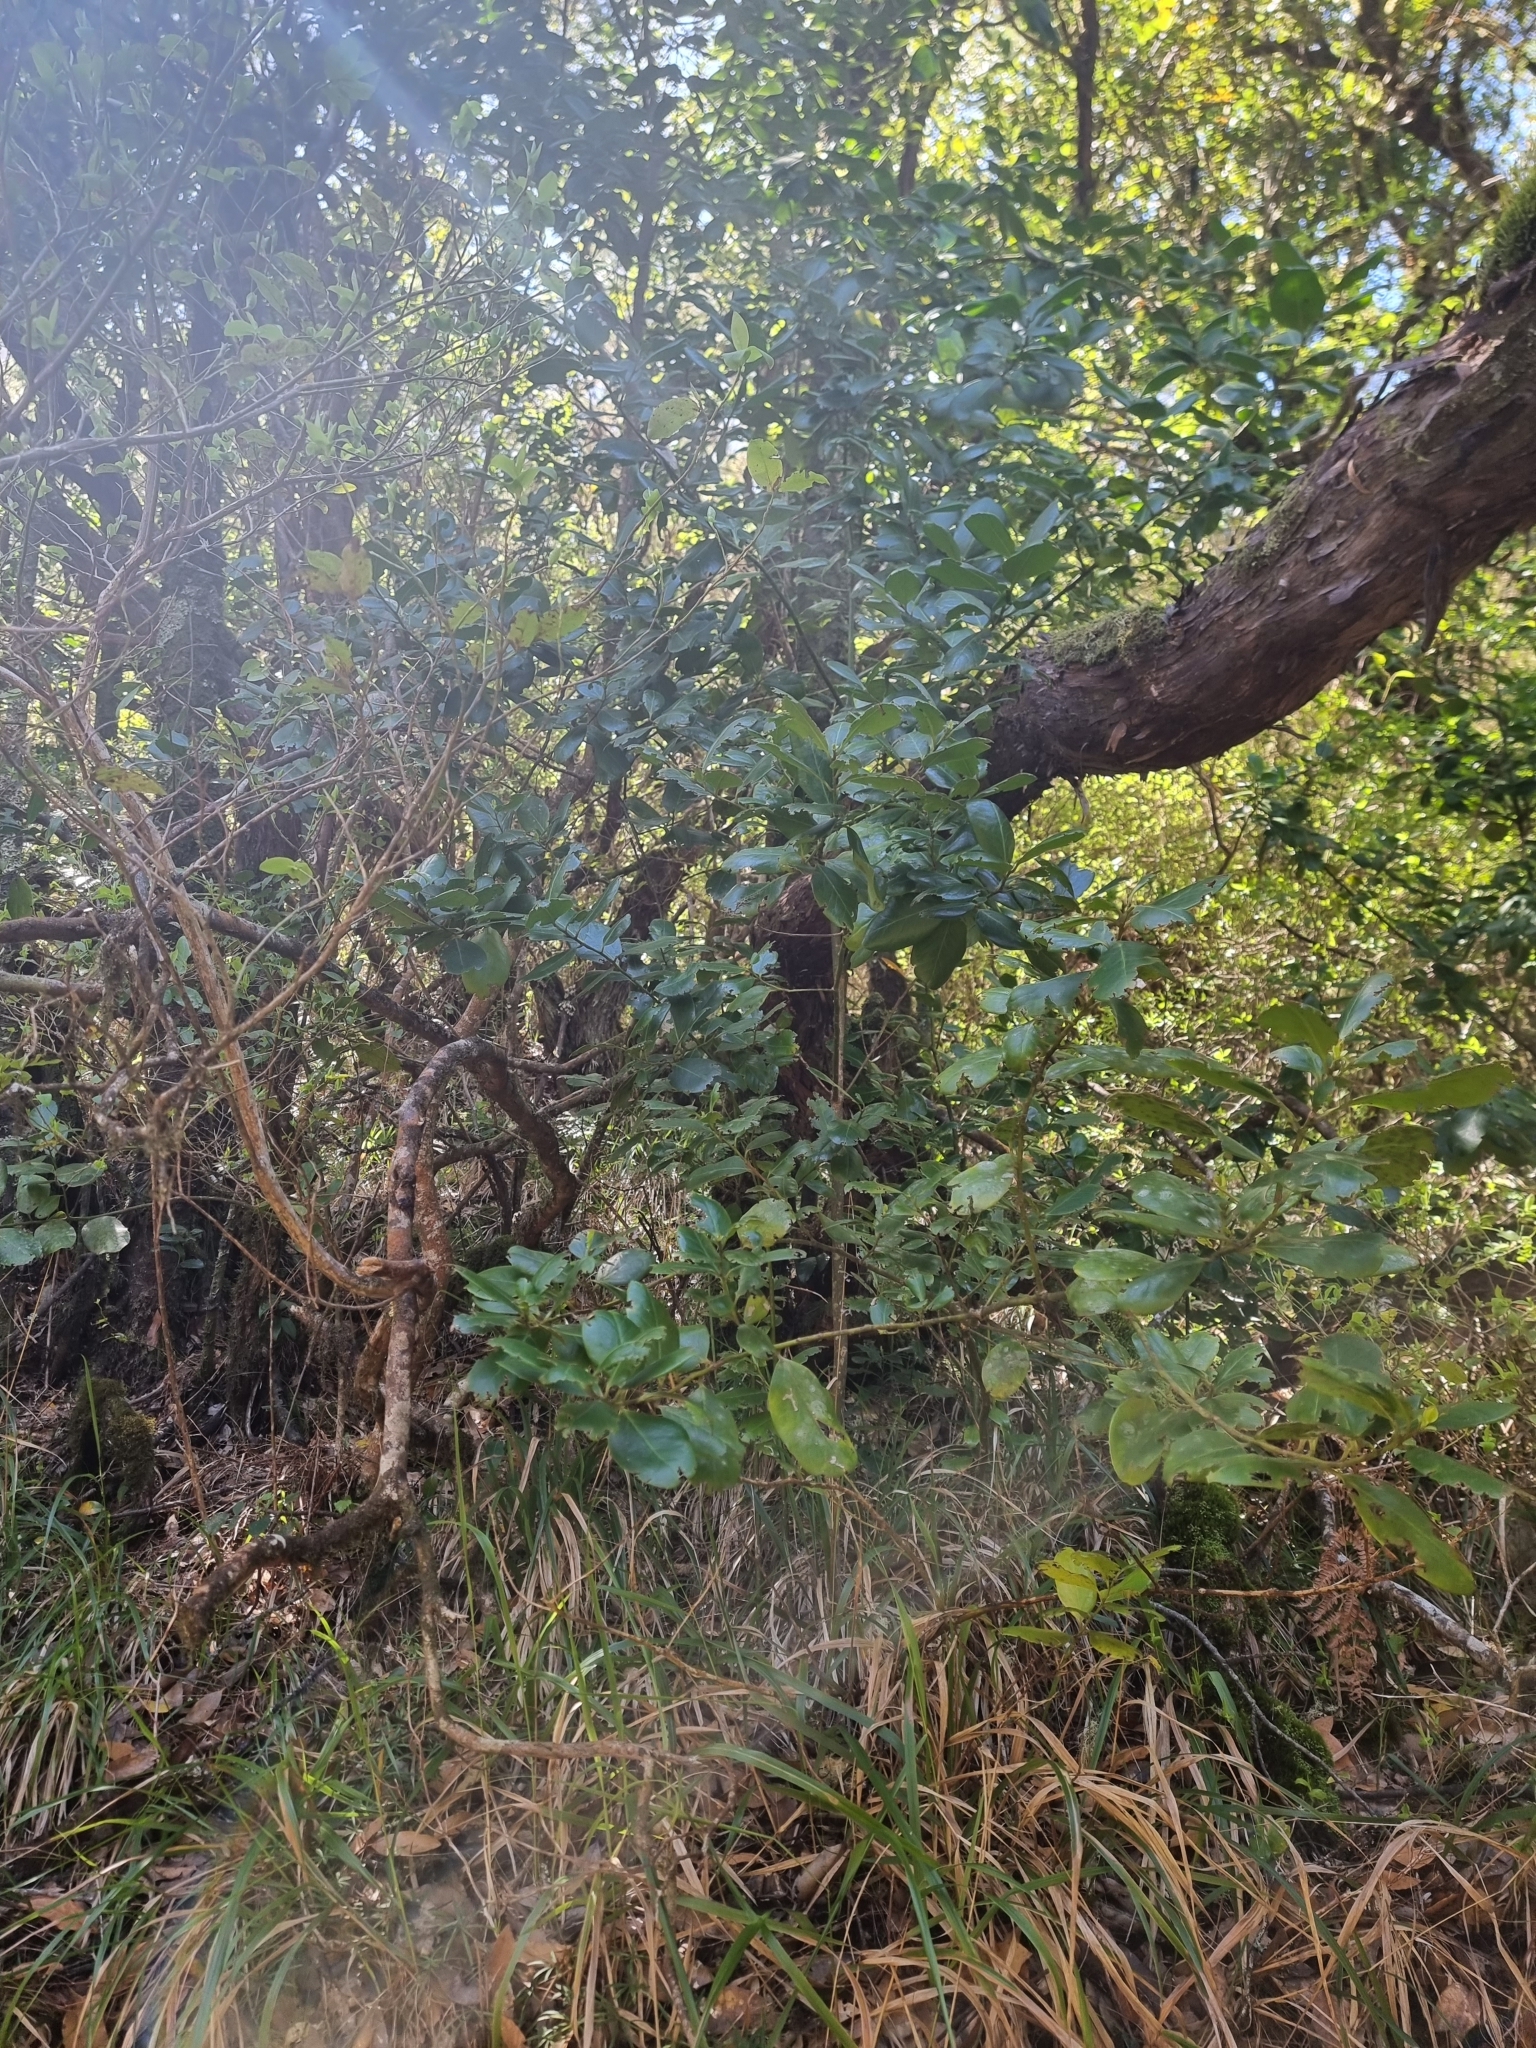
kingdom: Plantae
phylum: Tracheophyta
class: Magnoliopsida
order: Aquifoliales
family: Aquifoliaceae
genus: Ilex
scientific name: Ilex perado
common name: Madeira holly
